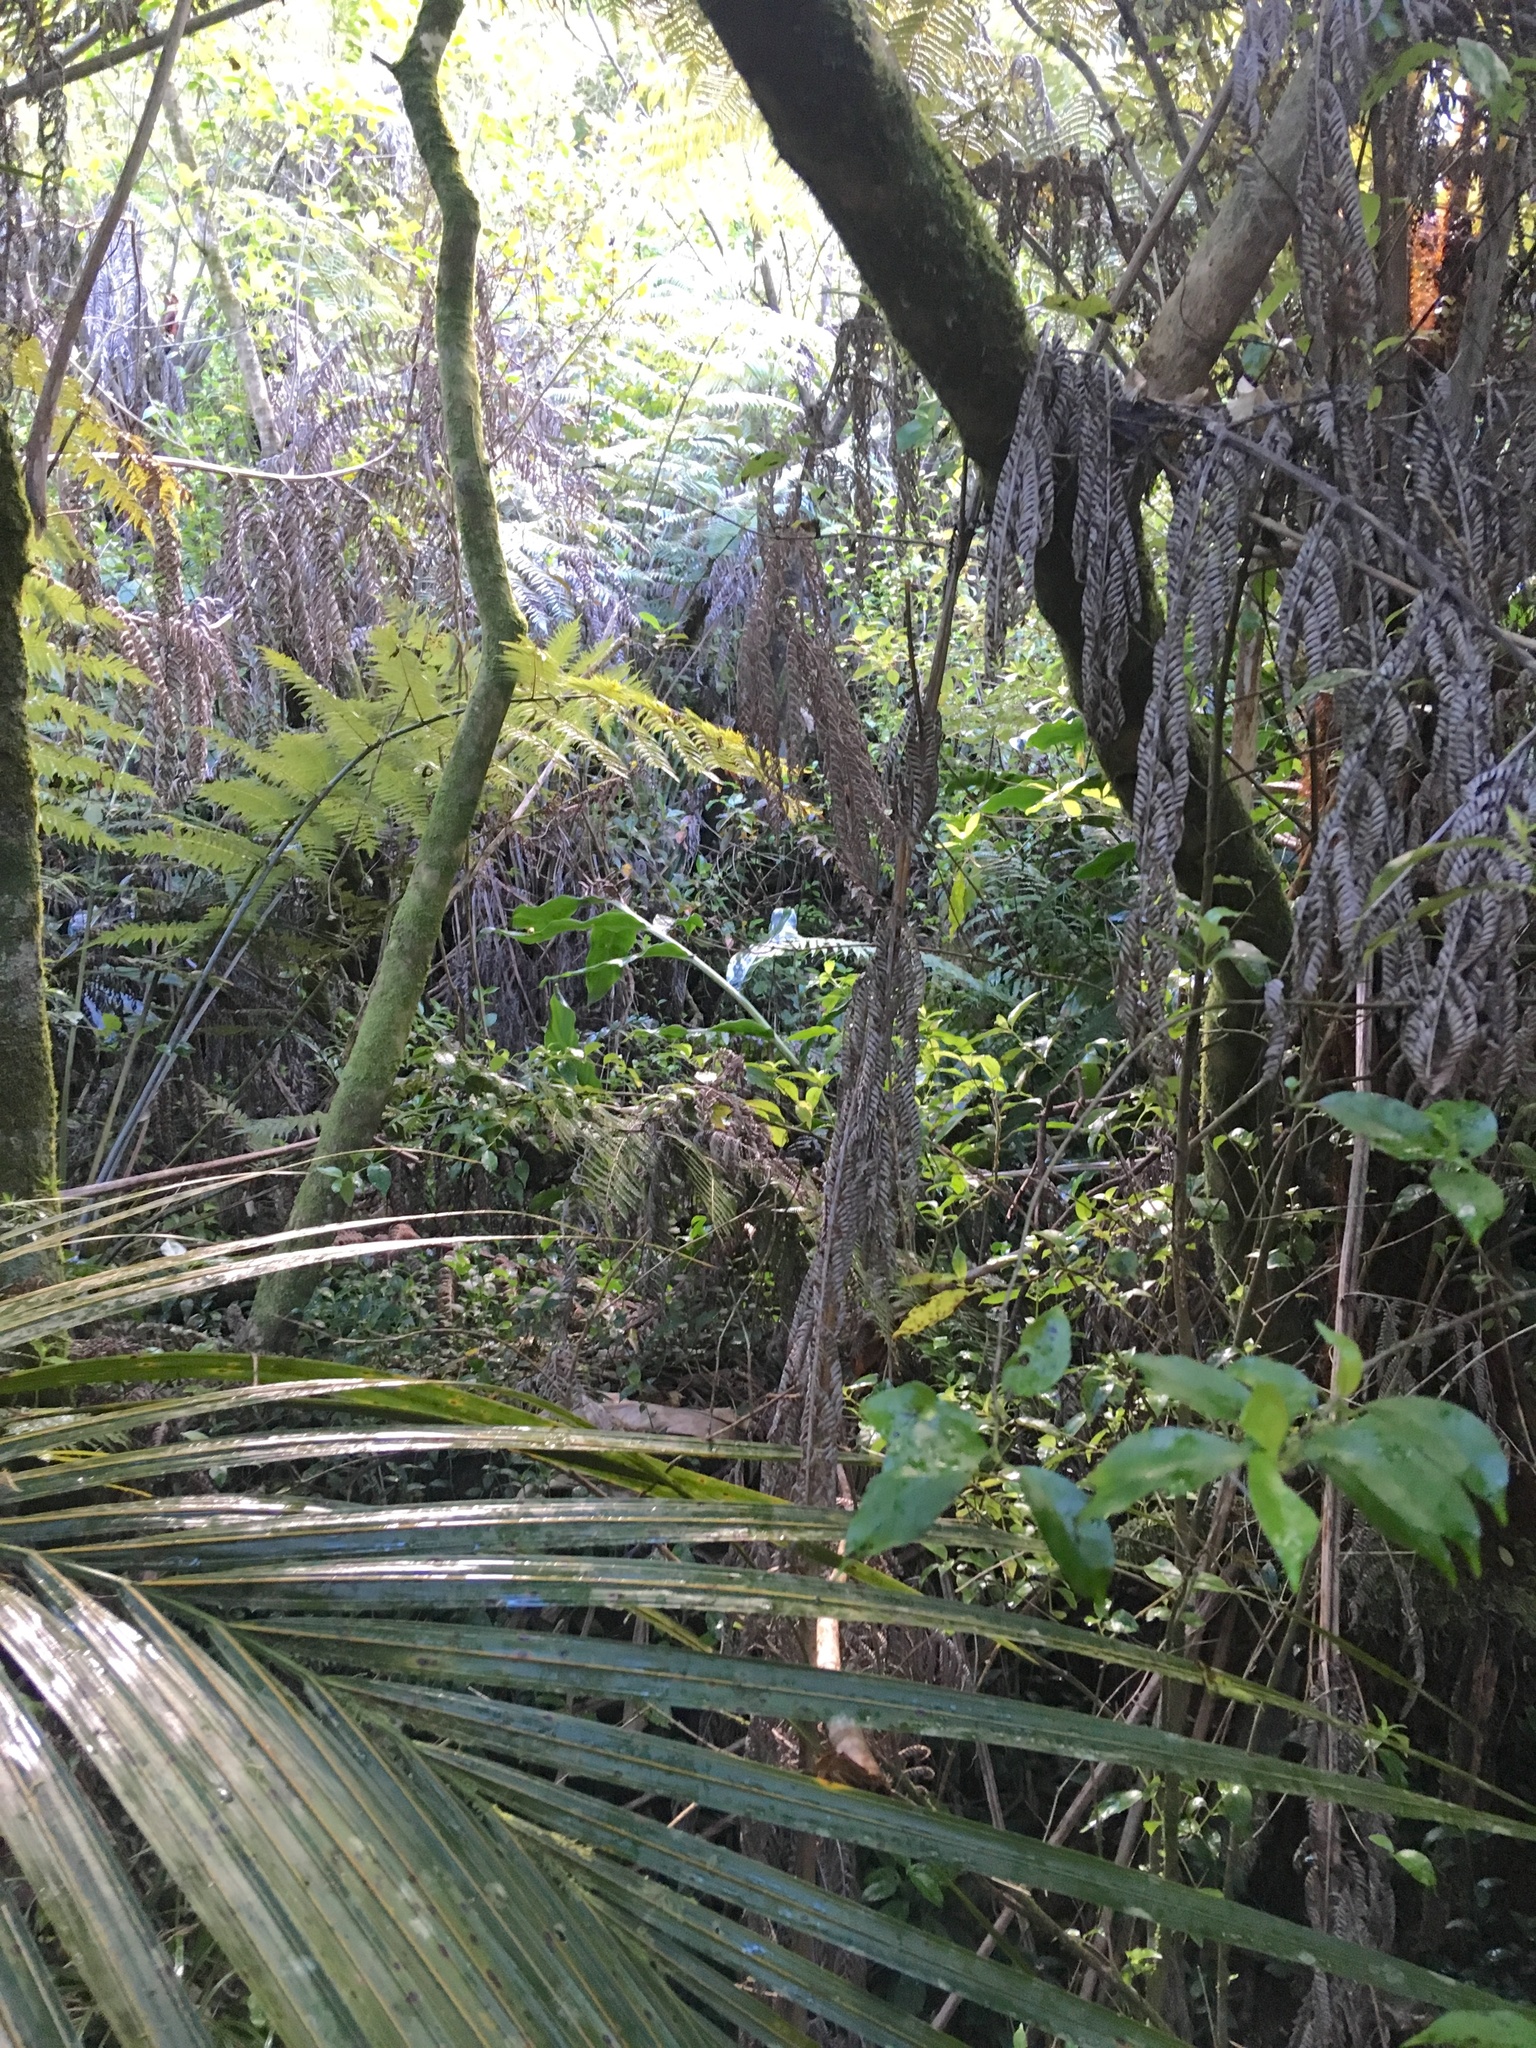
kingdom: Plantae
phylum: Tracheophyta
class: Liliopsida
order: Zingiberales
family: Zingiberaceae
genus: Hedychium
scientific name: Hedychium gardnerianum
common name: Himalayan ginger
